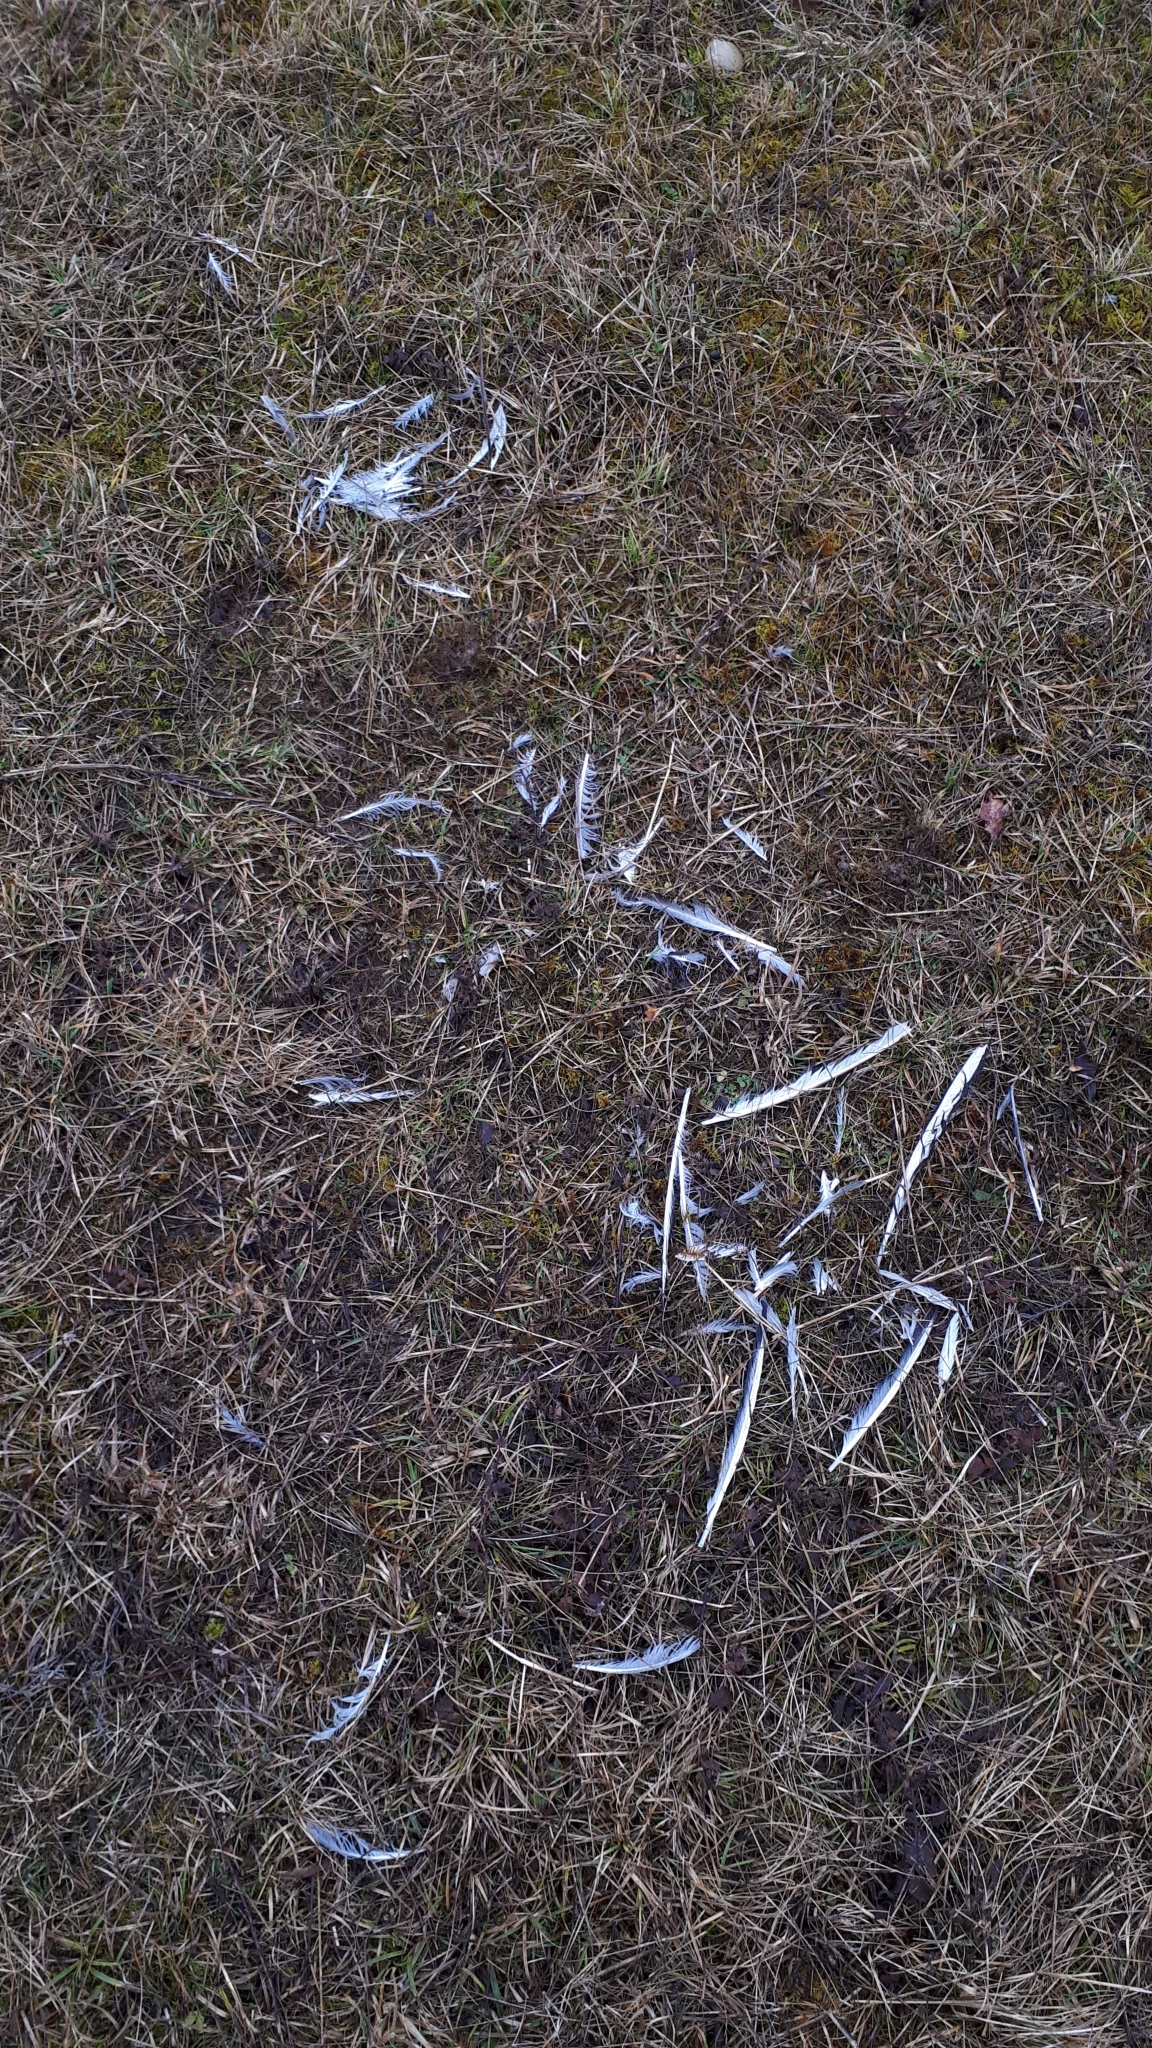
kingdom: Animalia
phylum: Chordata
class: Aves
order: Charadriiformes
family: Laridae
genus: Chroicocephalus
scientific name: Chroicocephalus ridibundus
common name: Black-headed gull
